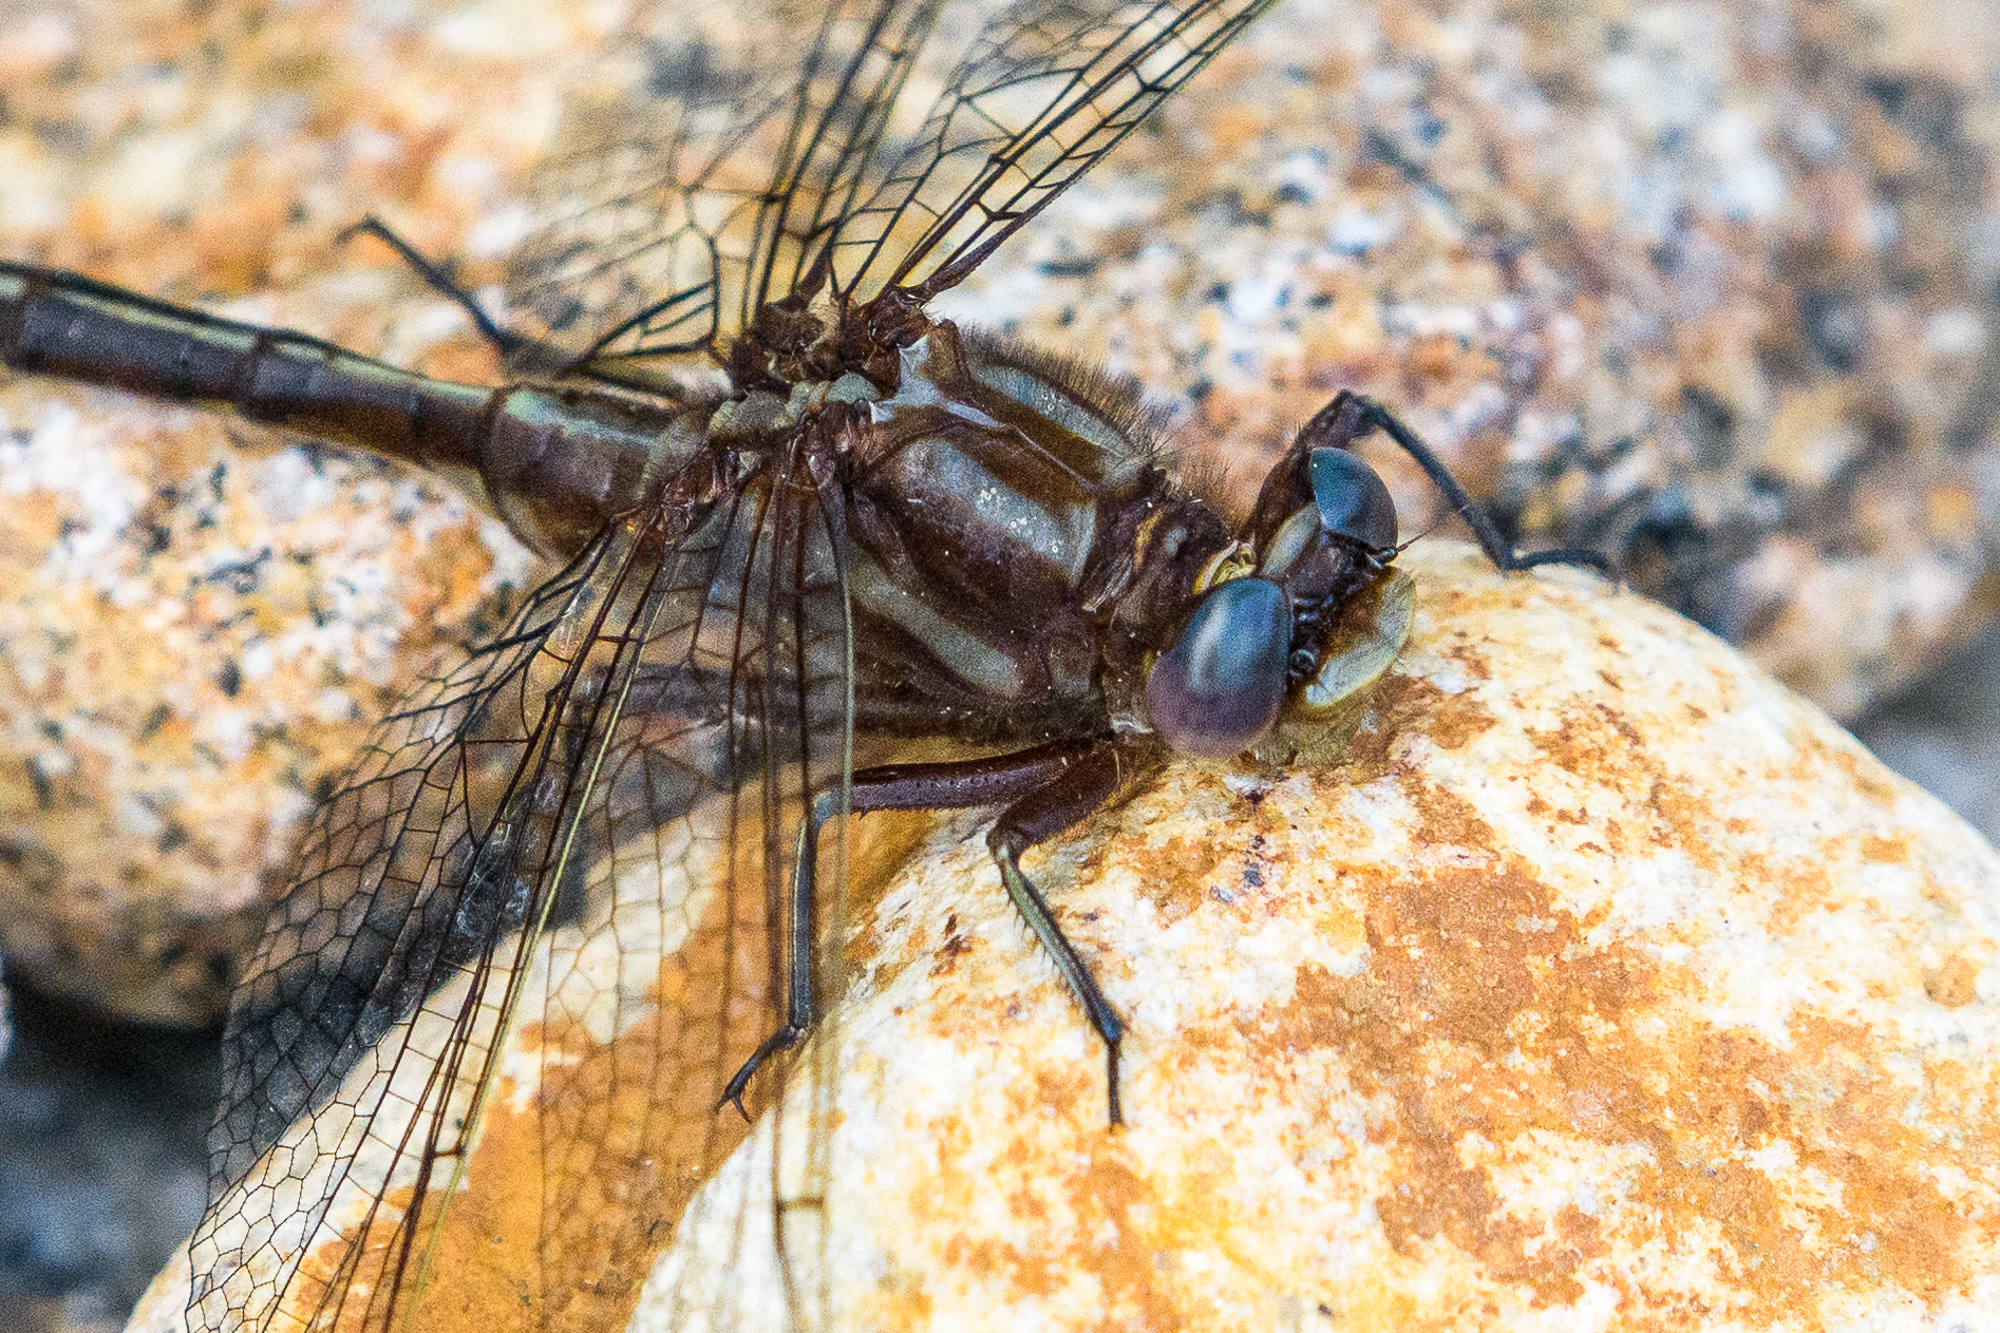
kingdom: Animalia
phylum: Arthropoda
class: Insecta
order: Odonata
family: Gomphidae
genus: Phanogomphus
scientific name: Phanogomphus lividus
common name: Ashy clubtail
